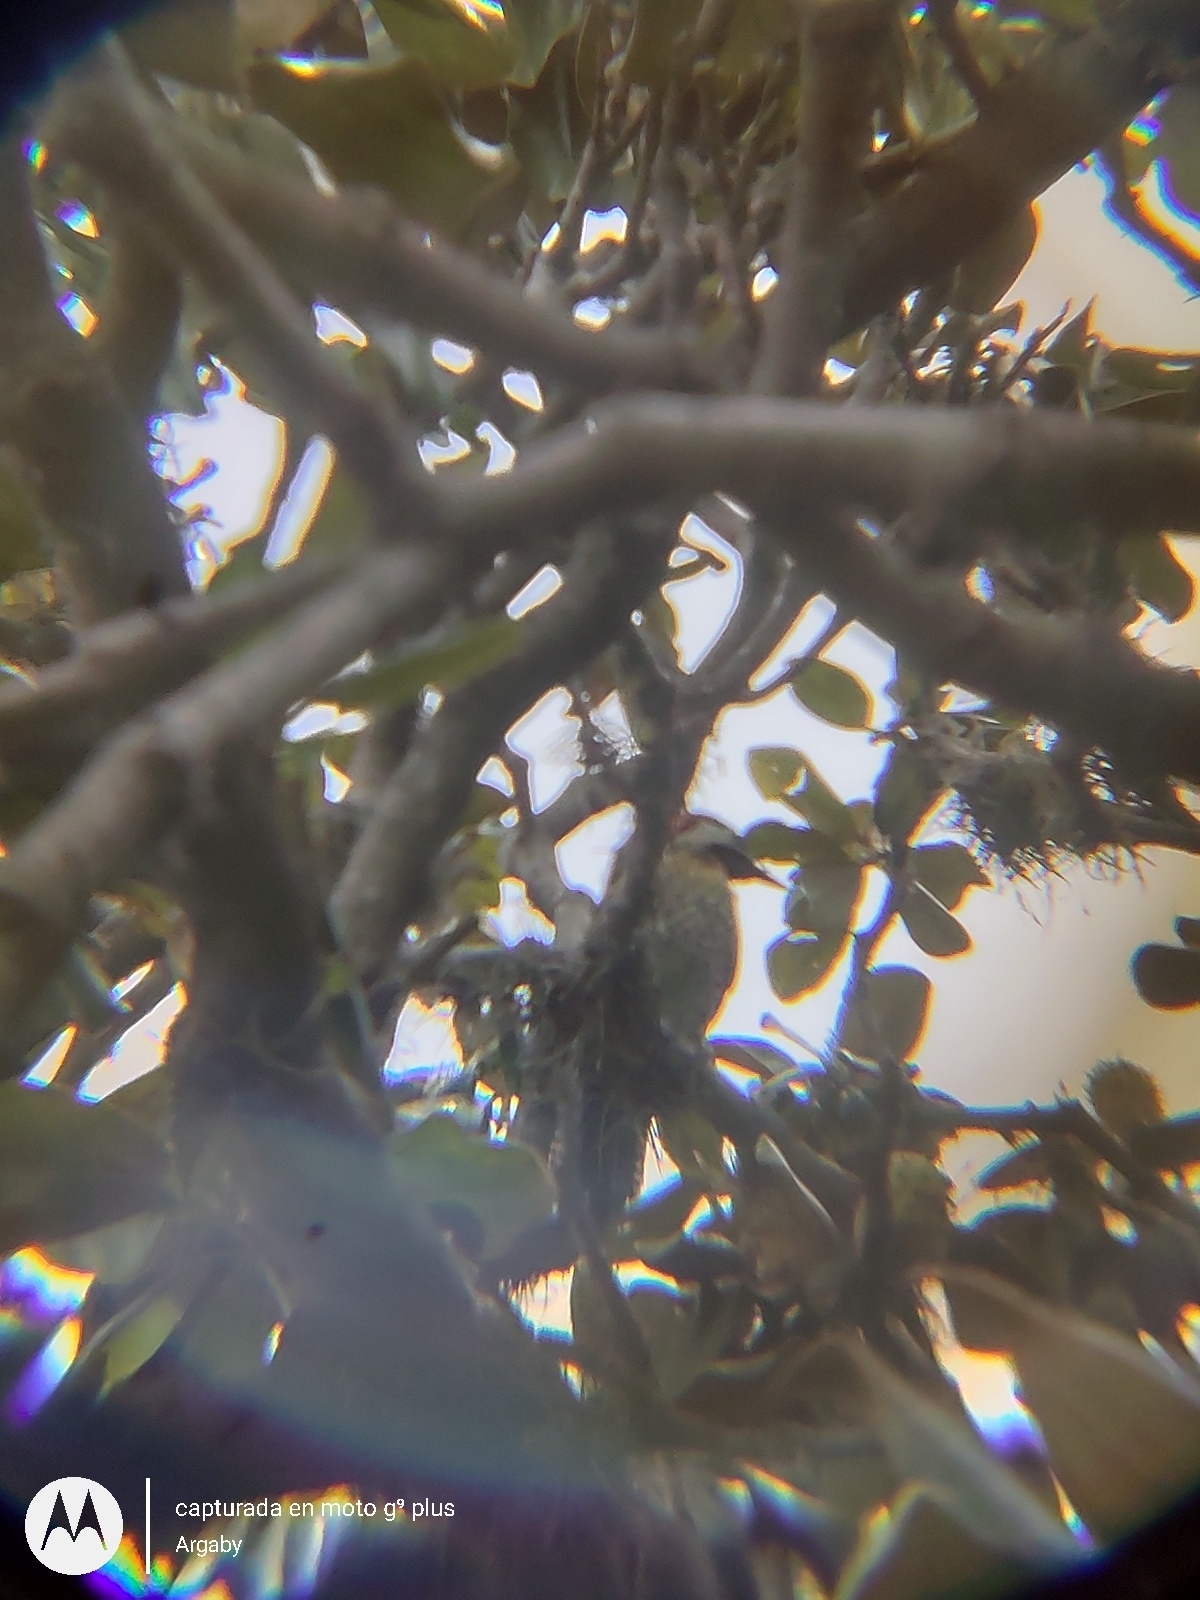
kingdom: Animalia
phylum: Chordata
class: Aves
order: Piciformes
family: Picidae
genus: Colaptes
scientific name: Colaptes melanochloros
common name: Green-barred woodpecker
